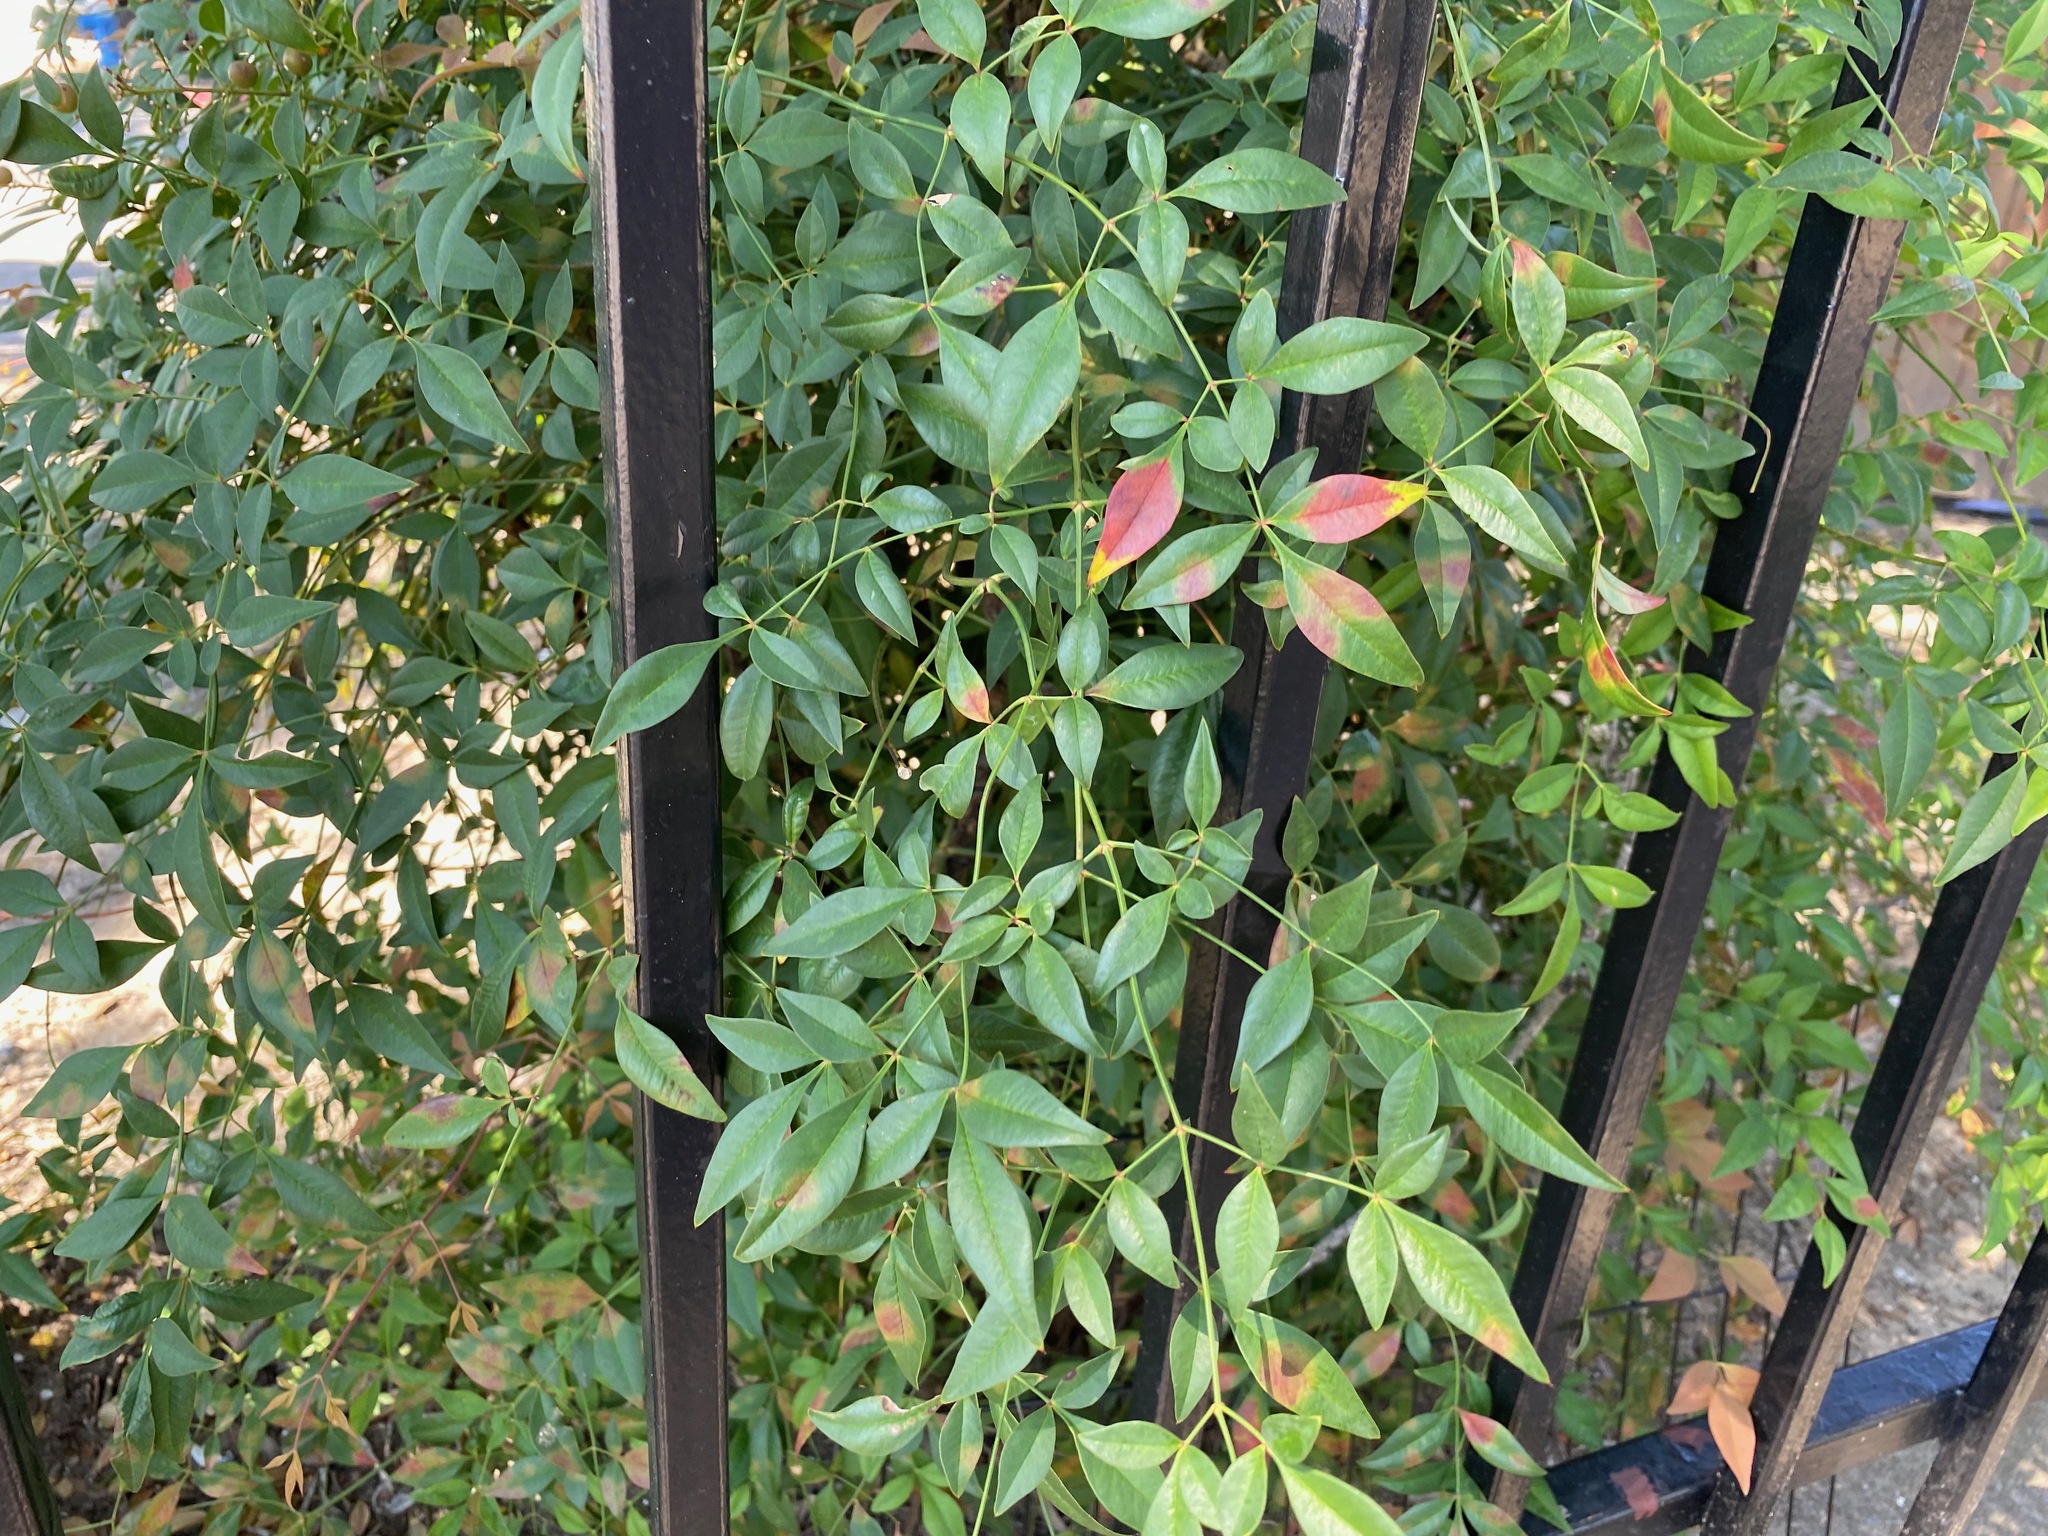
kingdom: Plantae
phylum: Tracheophyta
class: Magnoliopsida
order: Ranunculales
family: Berberidaceae
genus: Nandina
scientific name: Nandina domestica
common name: Sacred bamboo
